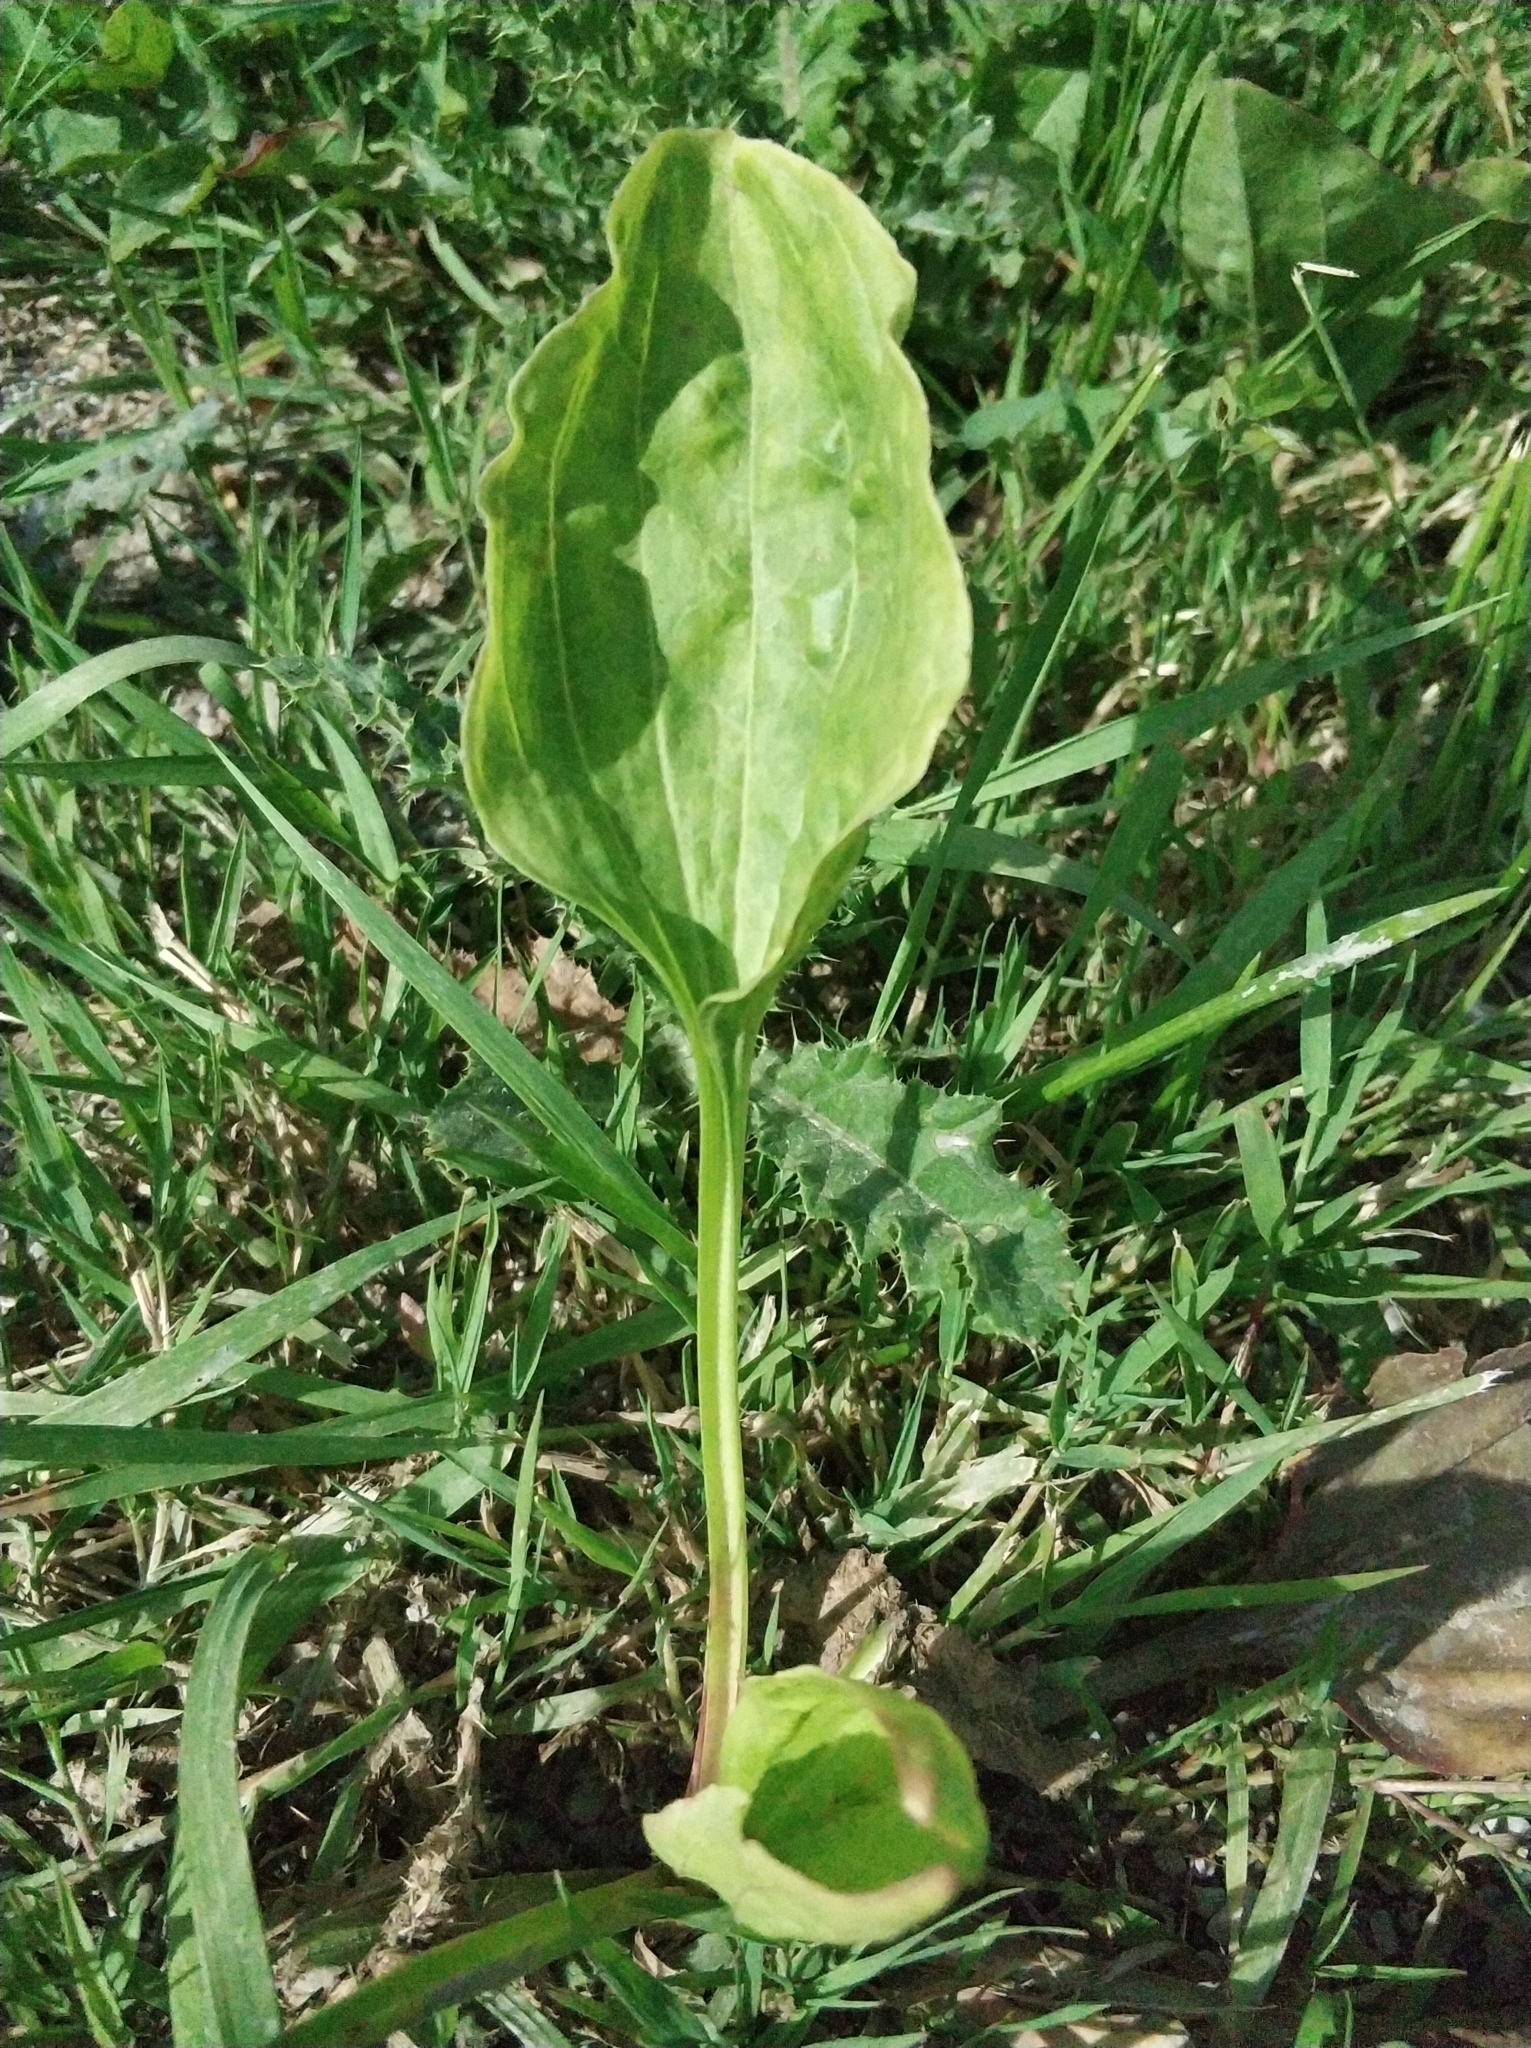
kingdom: Plantae
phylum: Tracheophyta
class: Magnoliopsida
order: Lamiales
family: Plantaginaceae
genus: Plantago
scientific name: Plantago major
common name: Common plantain
